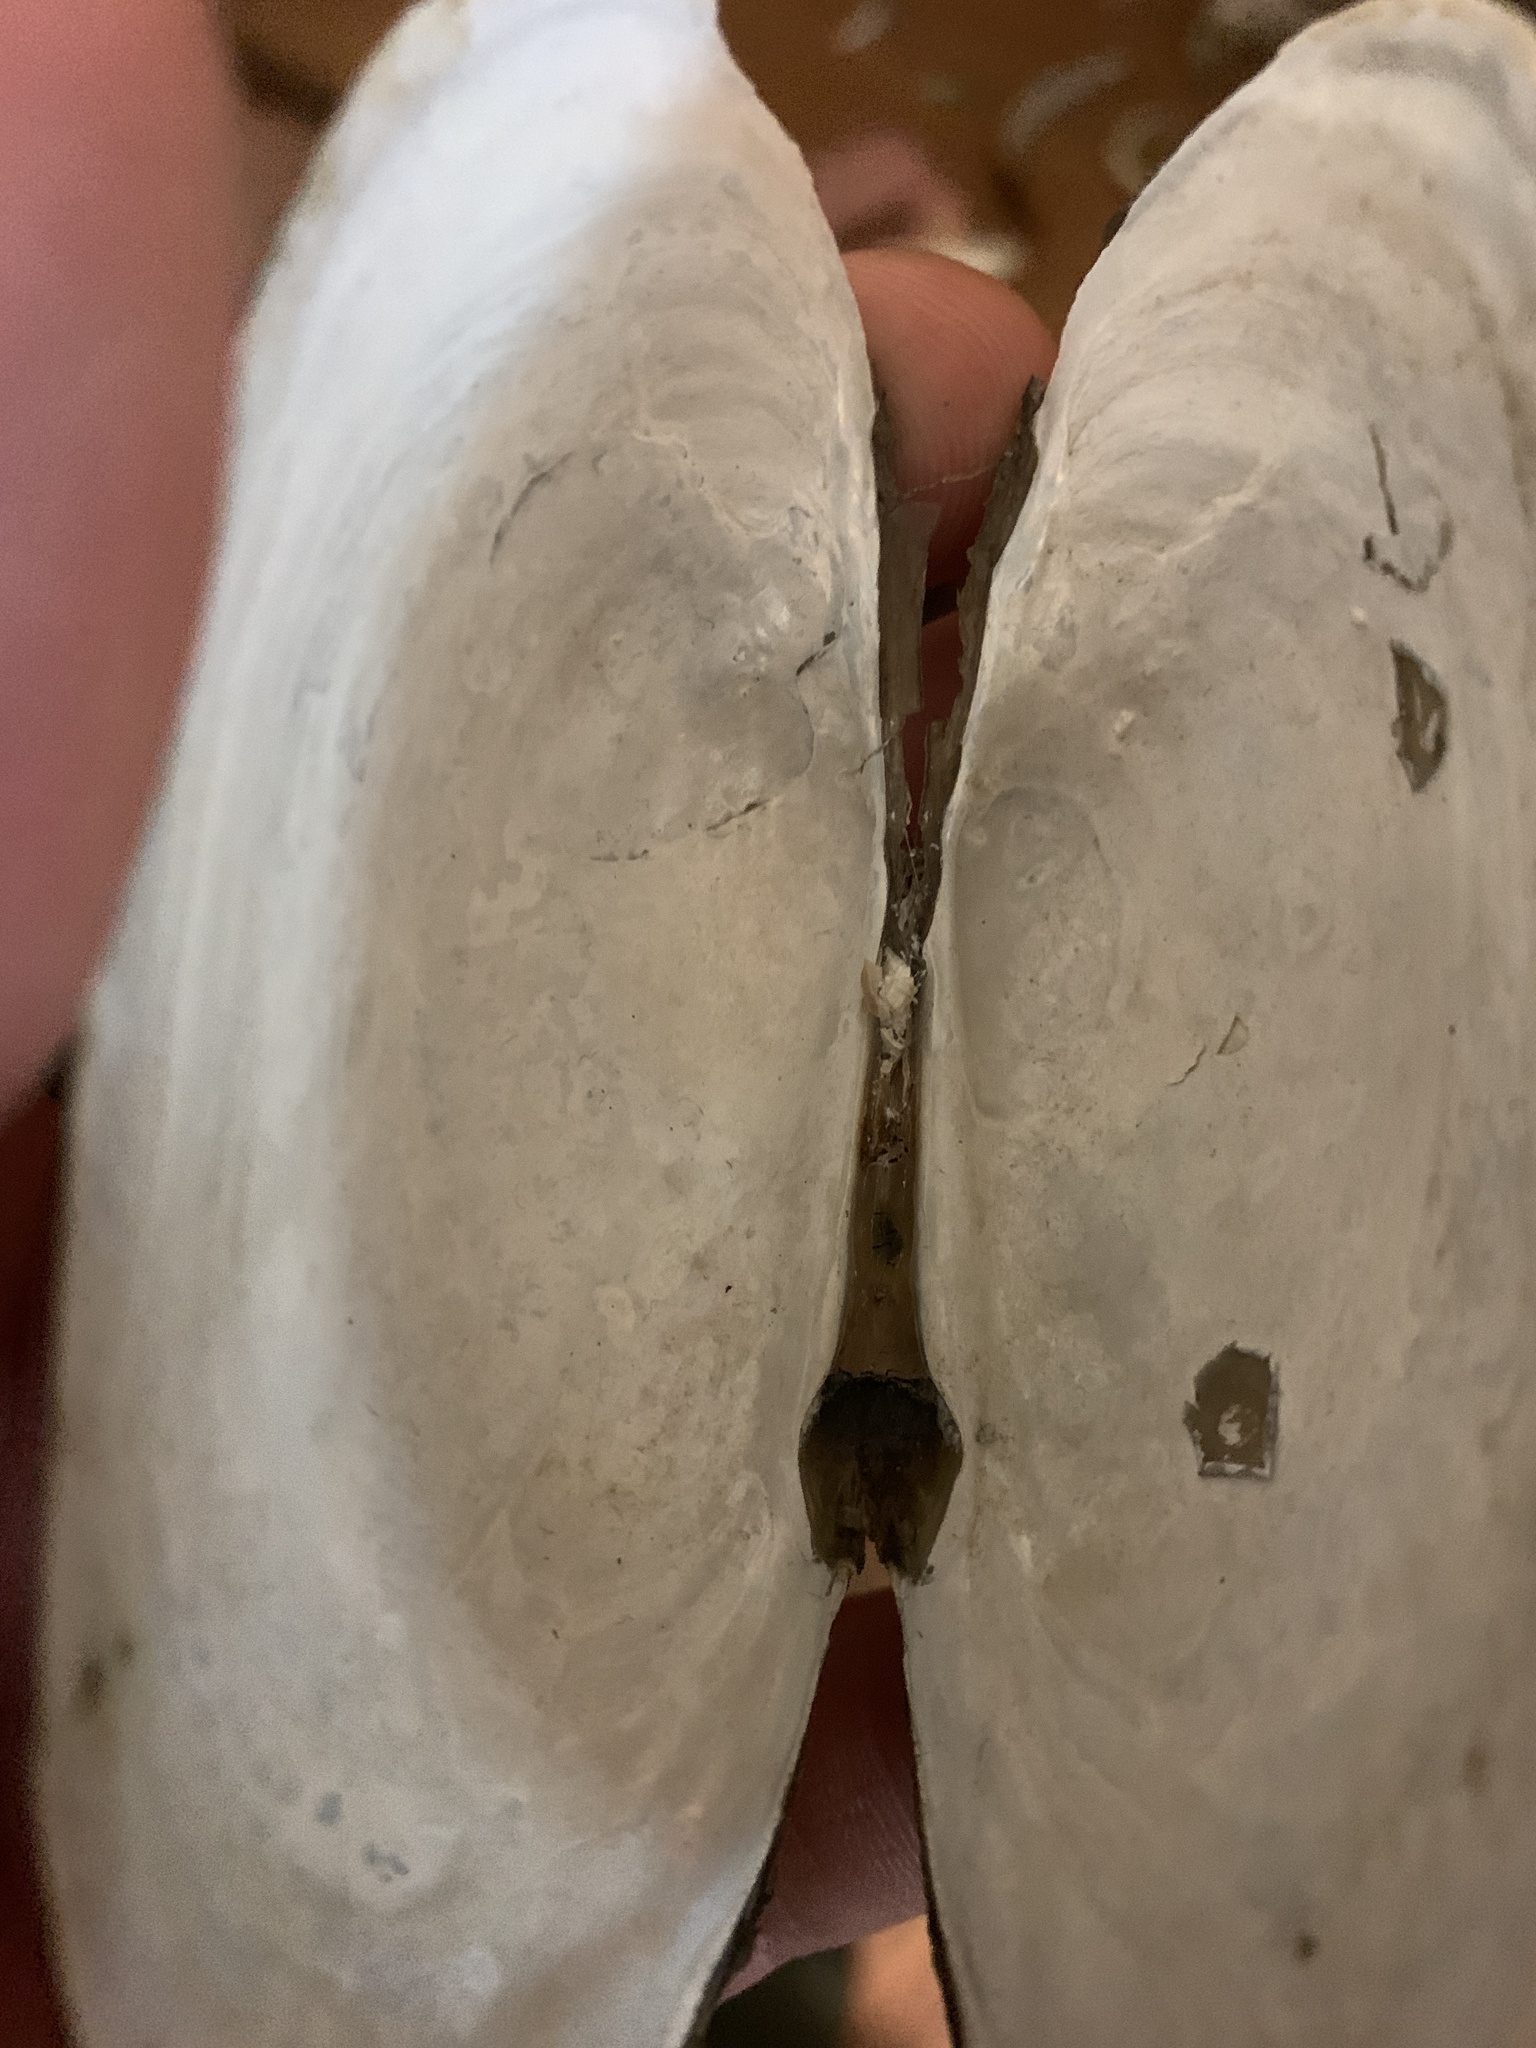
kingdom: Animalia
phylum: Mollusca
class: Bivalvia
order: Unionida
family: Unionidae
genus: Pyganodon
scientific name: Pyganodon grandis
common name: Giant floater
